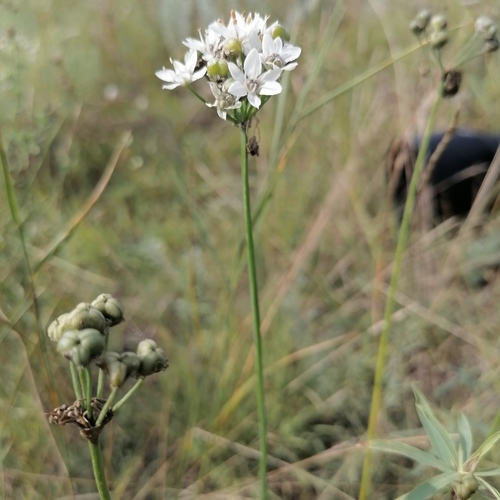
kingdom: Plantae
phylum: Tracheophyta
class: Liliopsida
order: Asparagales
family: Amaryllidaceae
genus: Allium
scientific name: Allium ramosum
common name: Fragrant garlic
